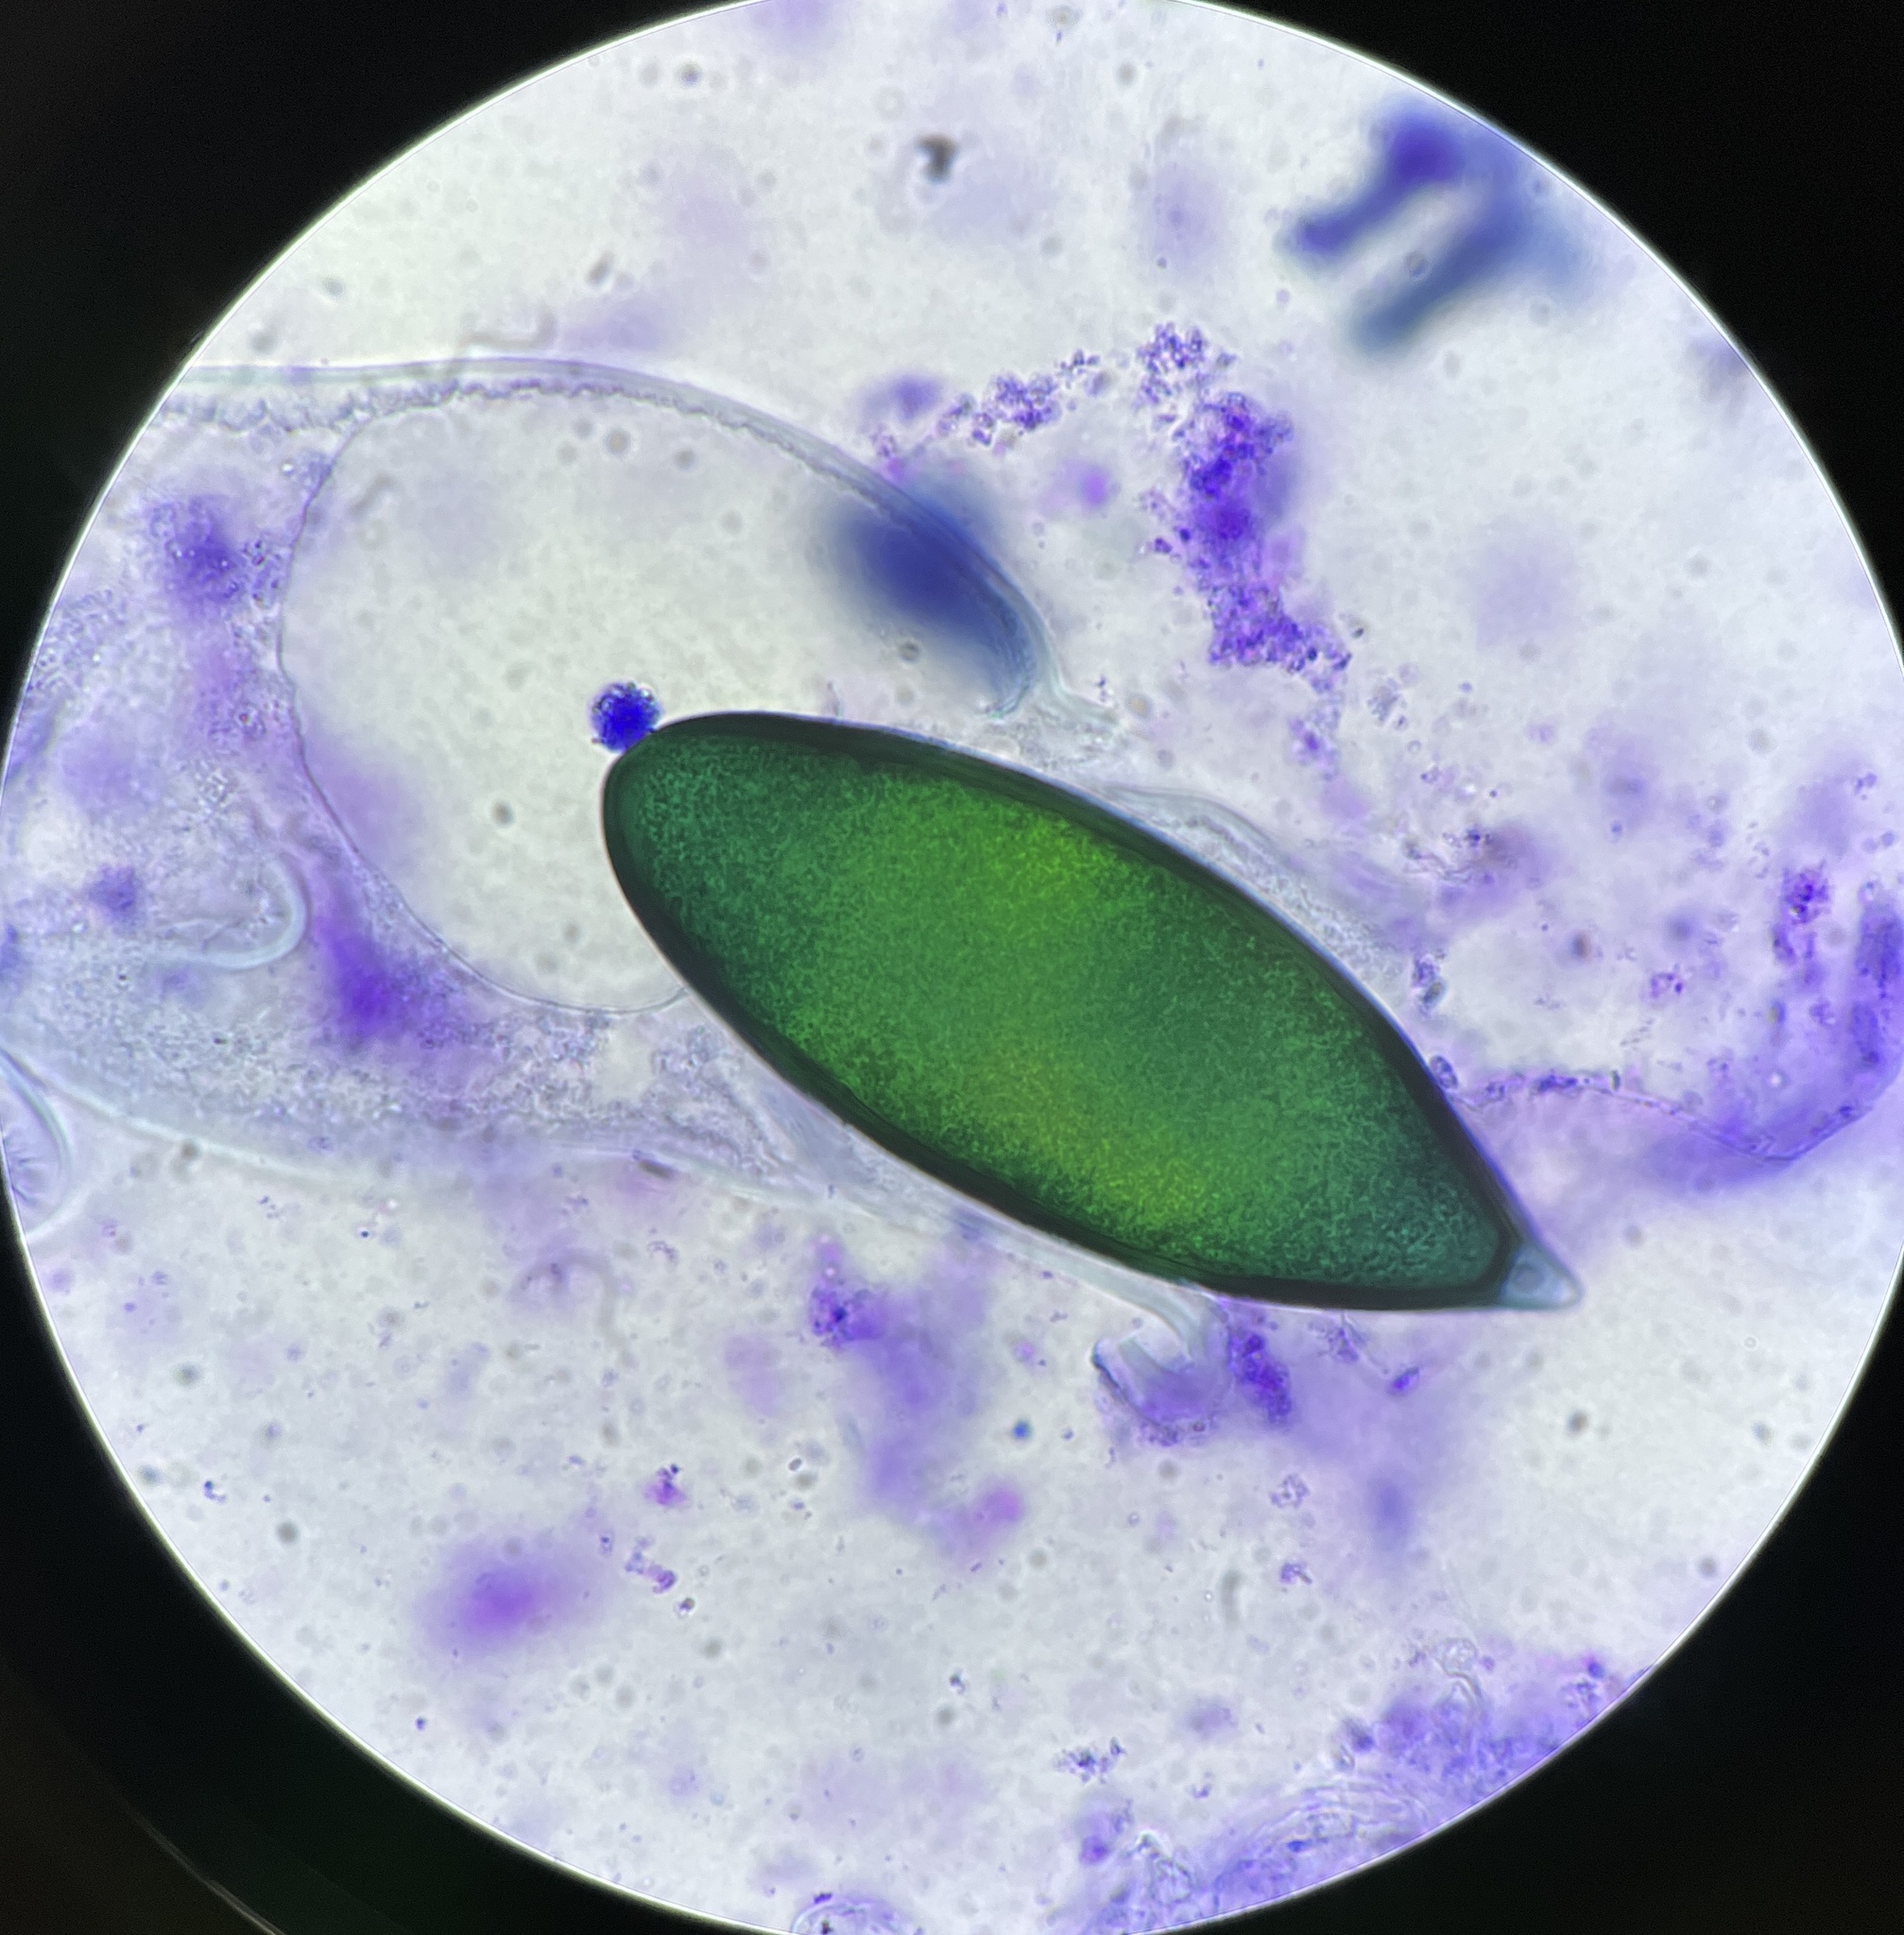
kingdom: Fungi
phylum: Ascomycota
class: Sordariomycetes
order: Sordariales
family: Podosporaceae
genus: Podospora
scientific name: Podospora gigantea
